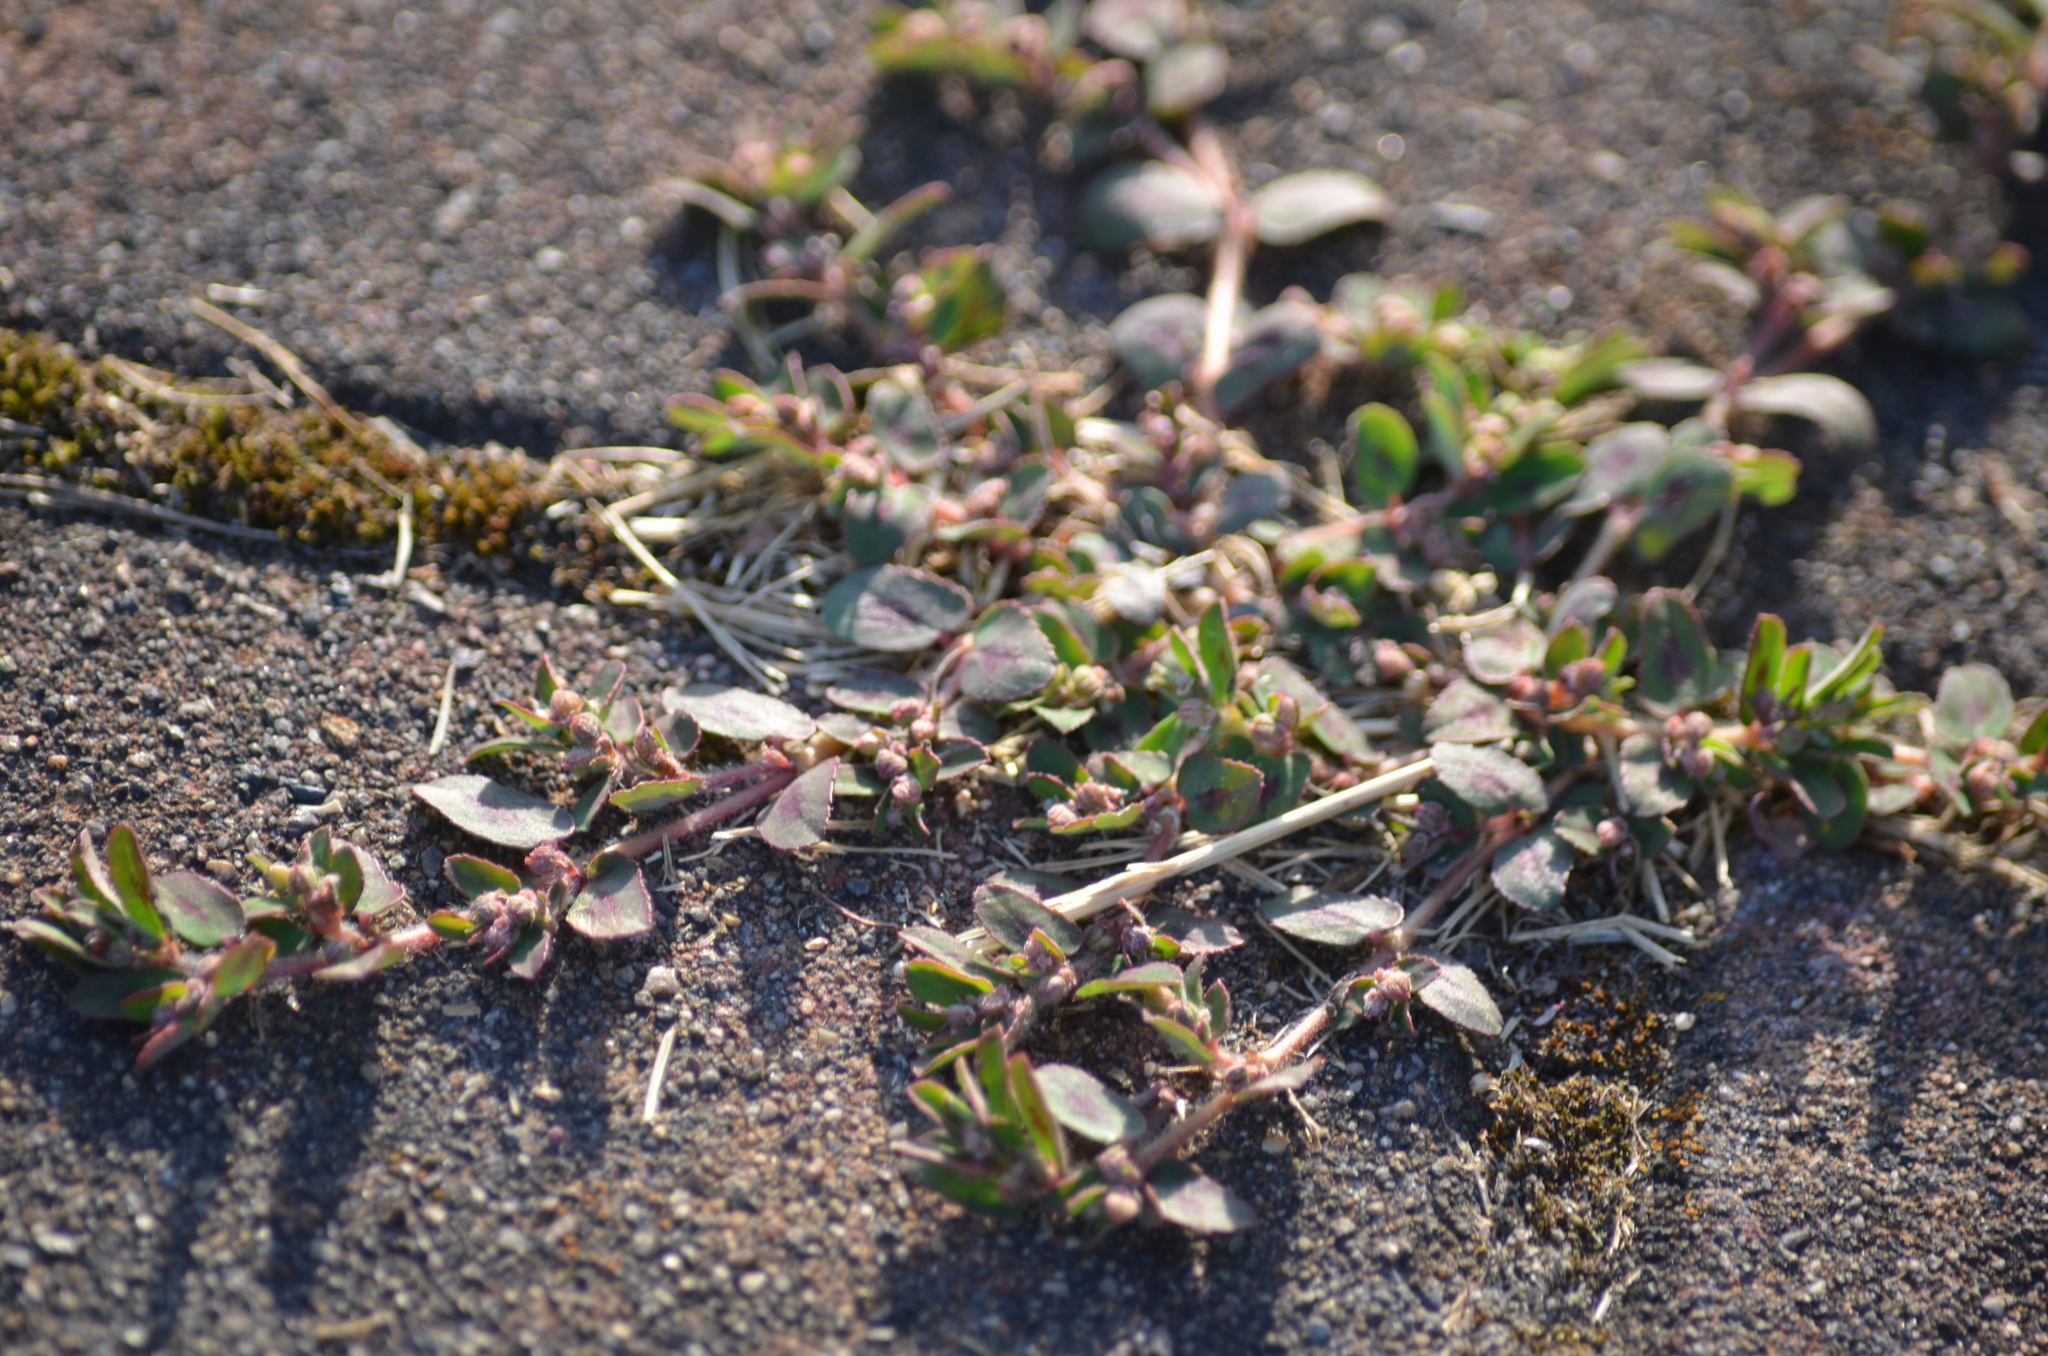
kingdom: Plantae
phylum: Tracheophyta
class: Magnoliopsida
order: Malpighiales
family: Euphorbiaceae
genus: Euphorbia
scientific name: Euphorbia maculata
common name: Spotted spurge
